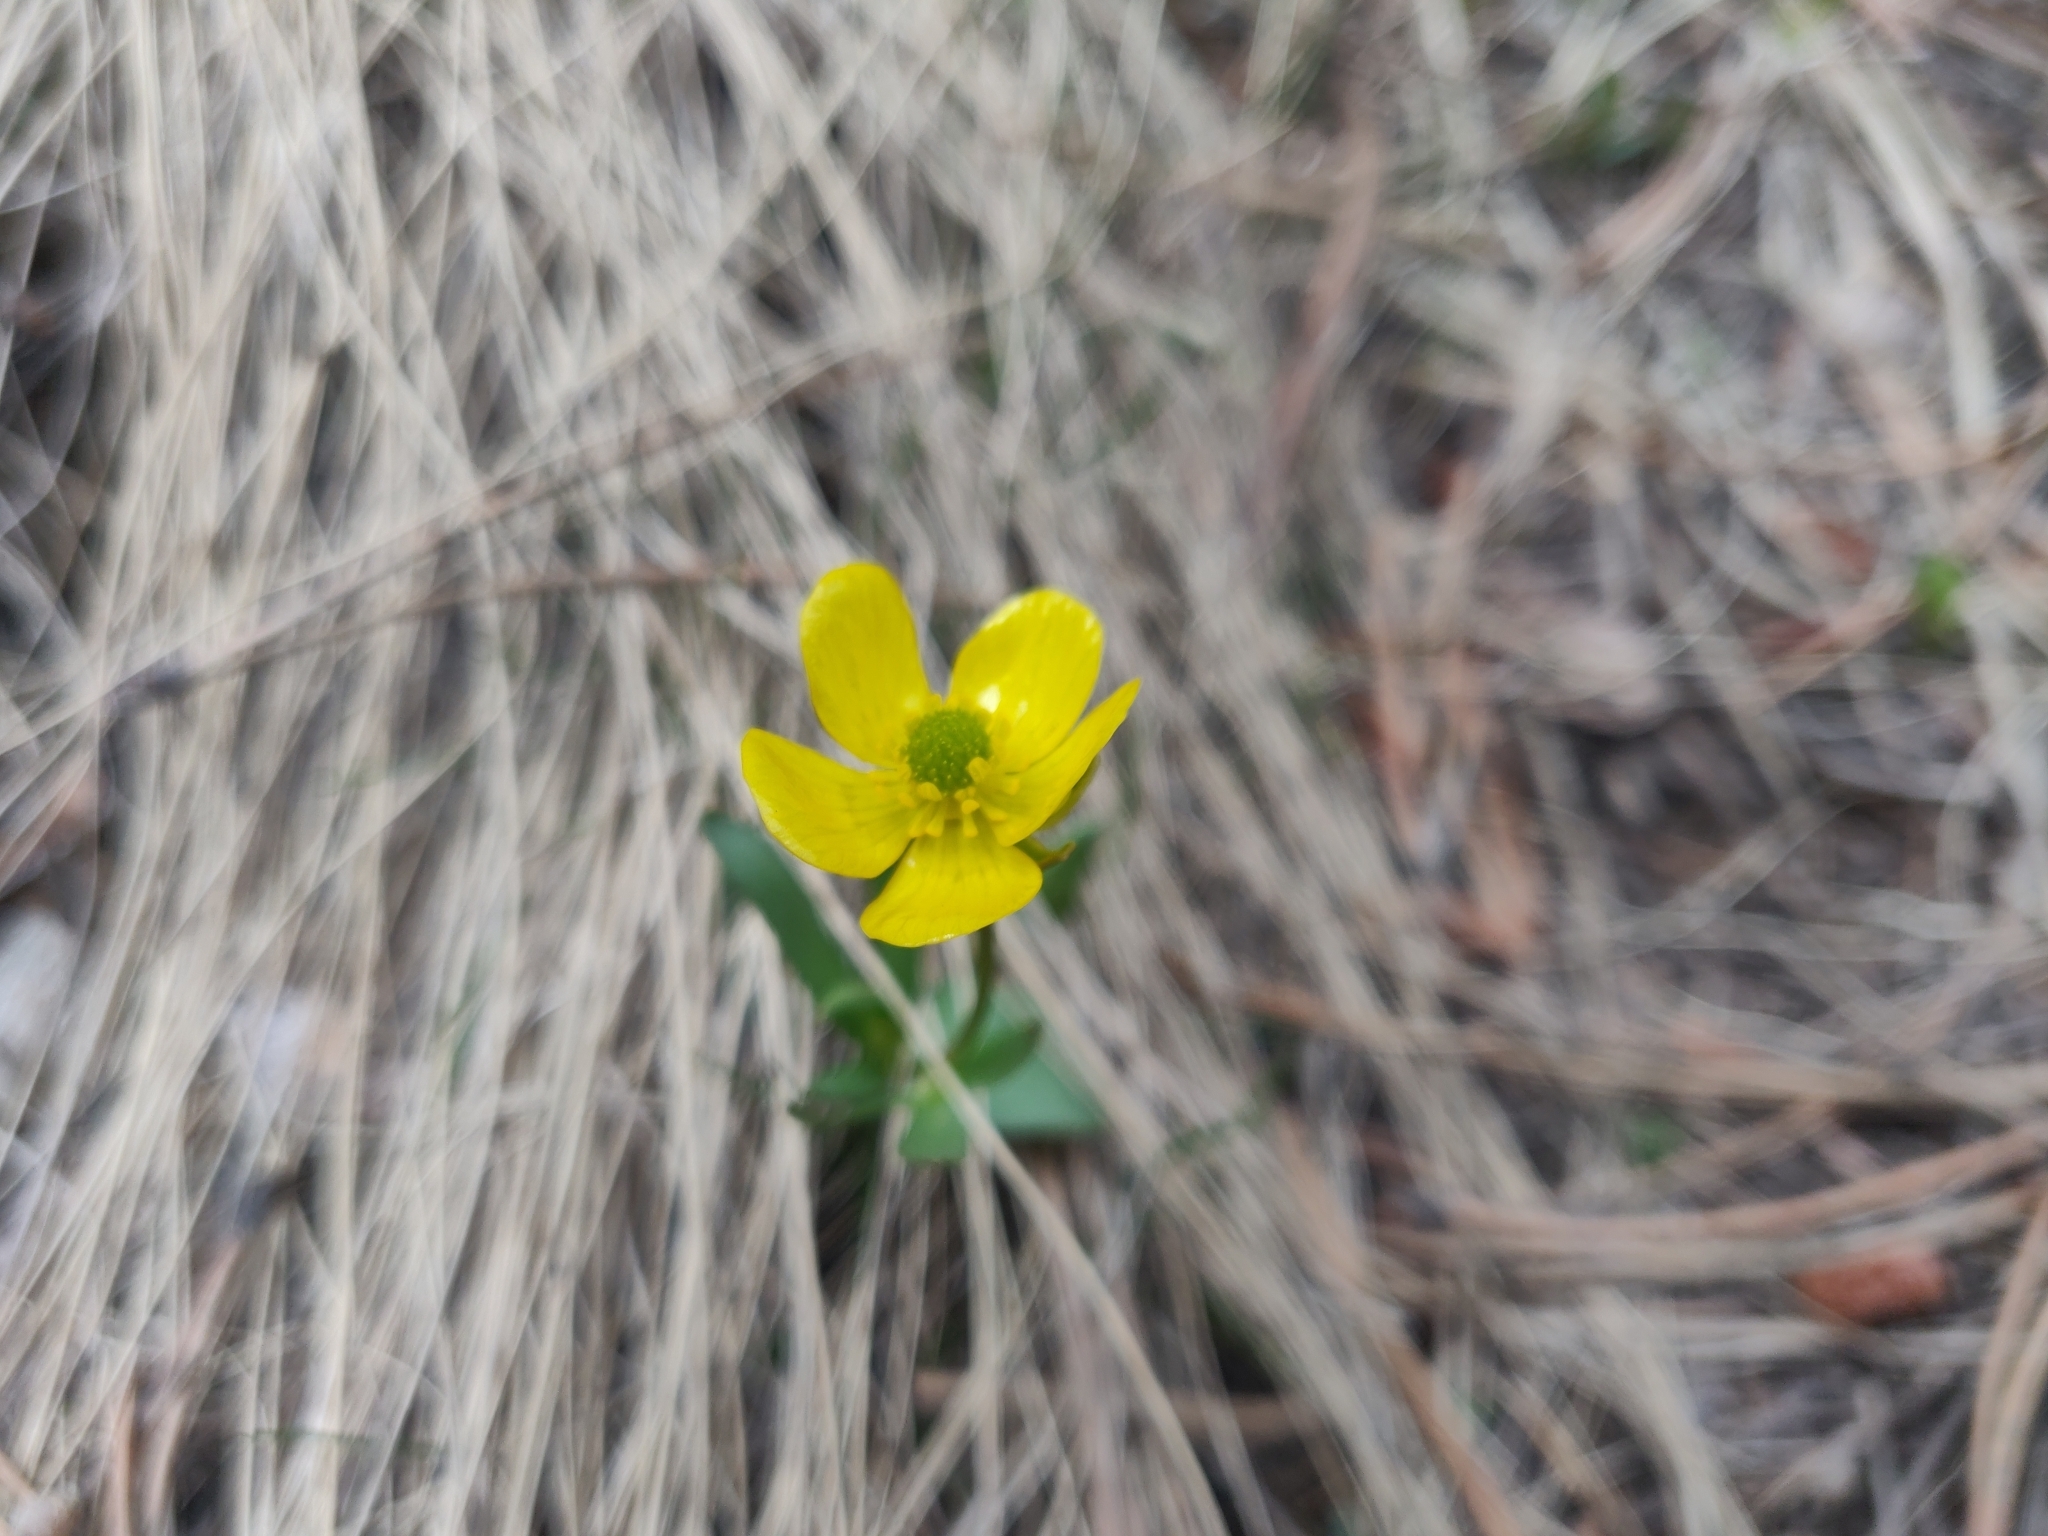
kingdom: Plantae
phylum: Tracheophyta
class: Magnoliopsida
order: Ranunculales
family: Ranunculaceae
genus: Ranunculus
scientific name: Ranunculus glaberrimus
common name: Sagebrush buttercup
